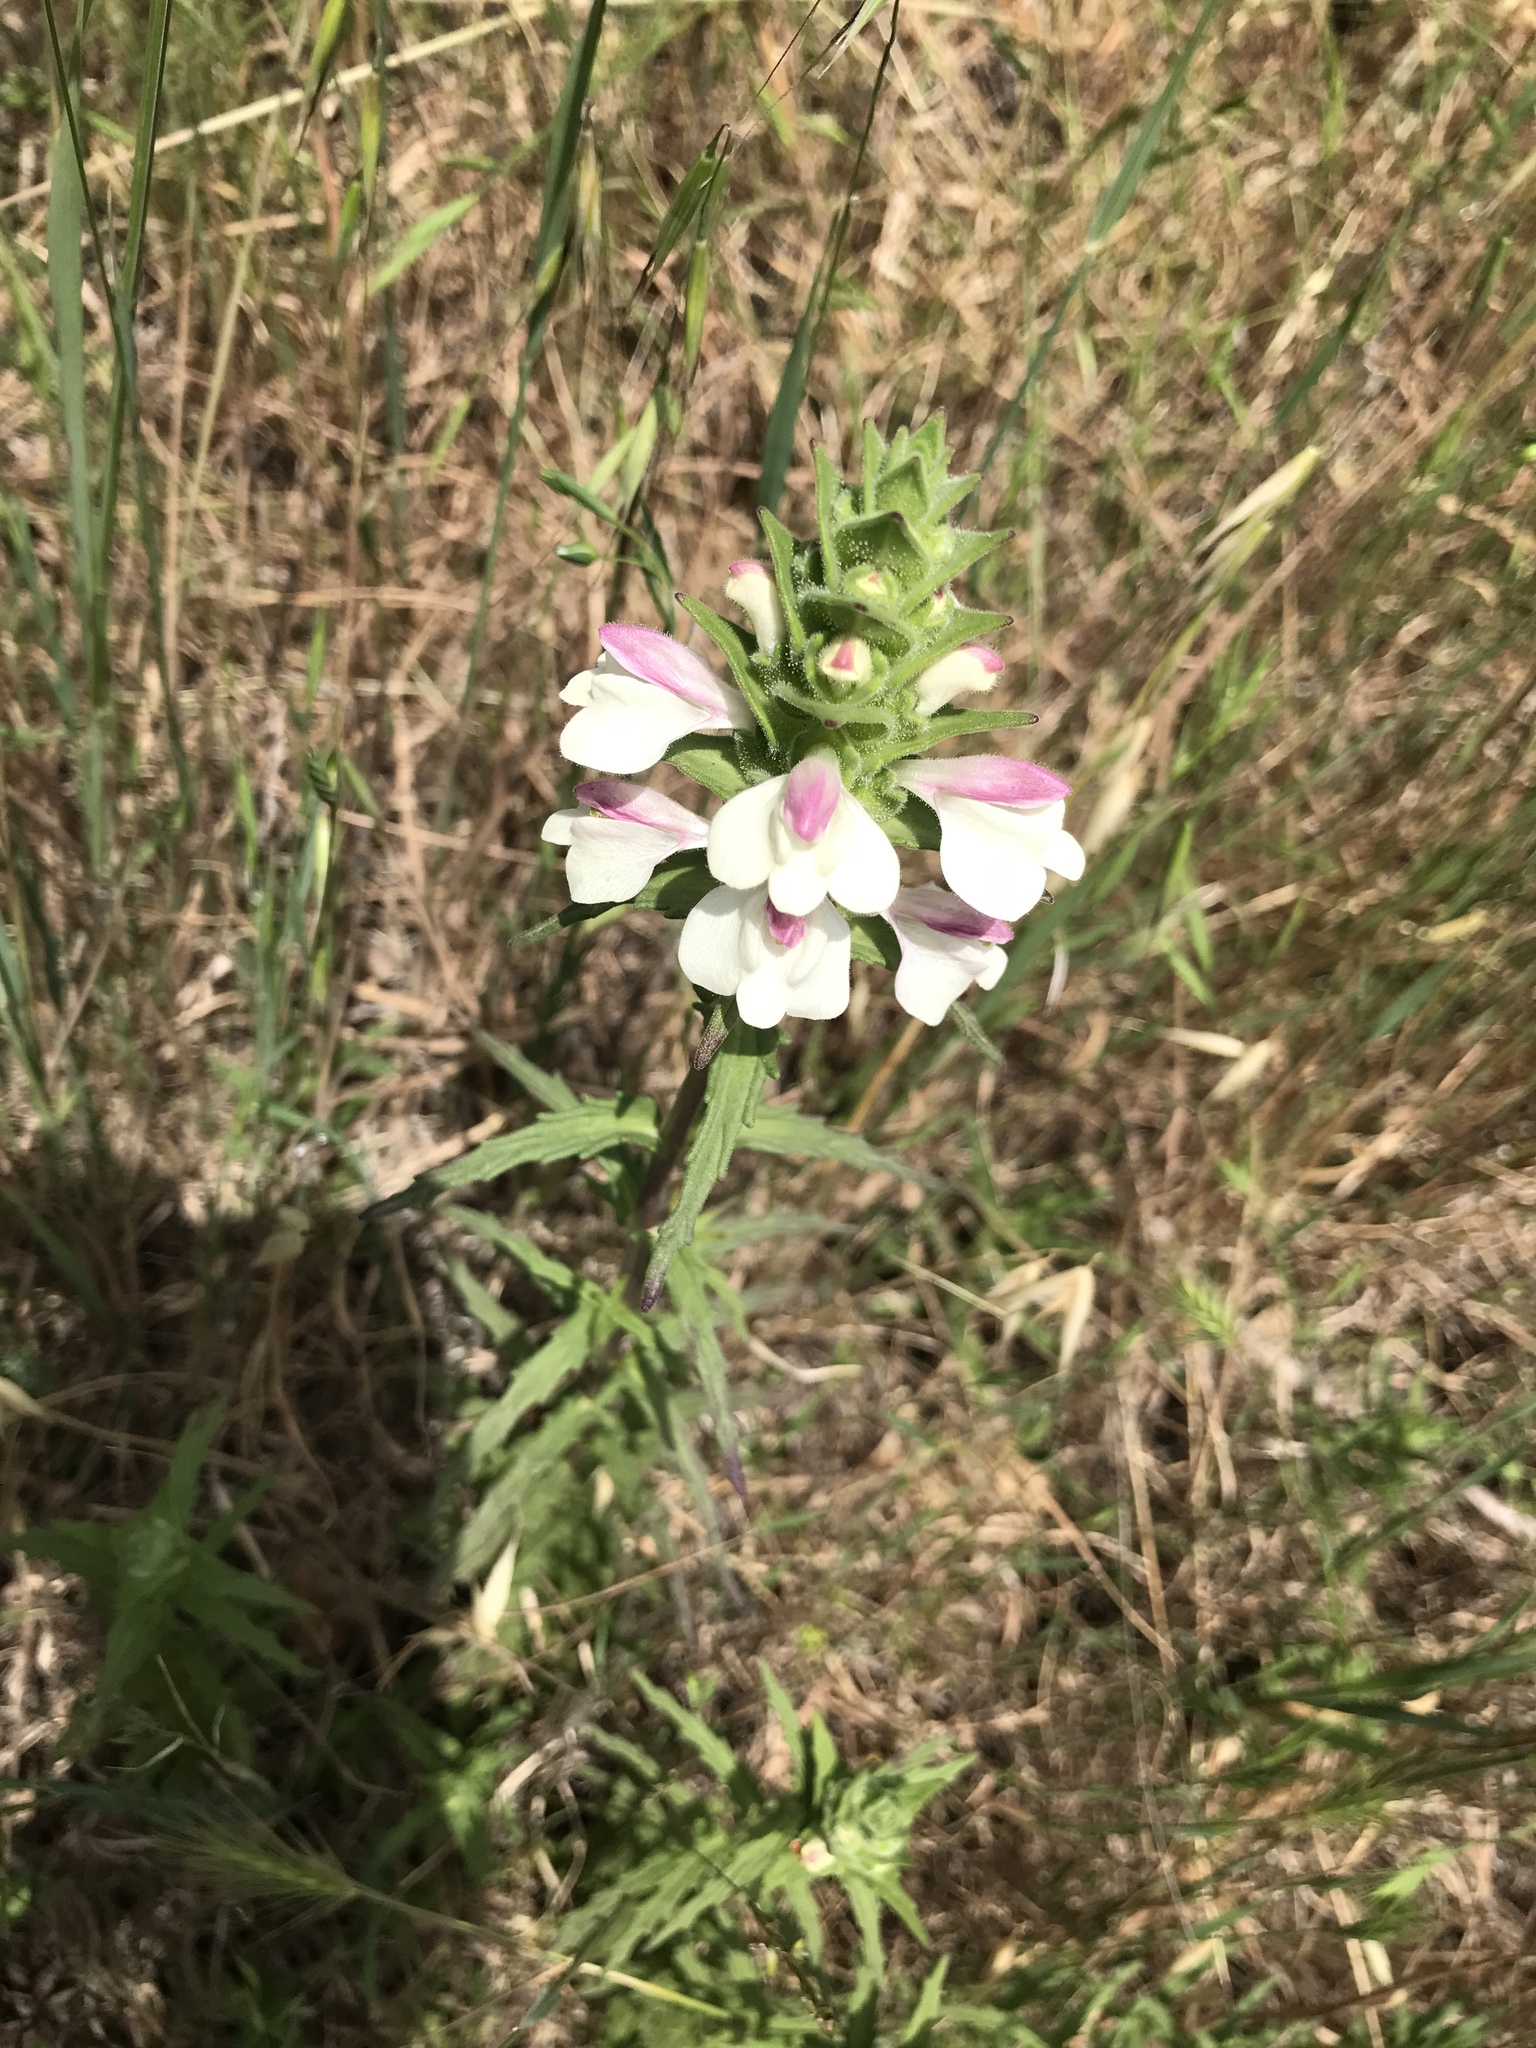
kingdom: Plantae
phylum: Tracheophyta
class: Magnoliopsida
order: Lamiales
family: Orobanchaceae
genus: Bellardia
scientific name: Bellardia trixago
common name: Mediterranean lineseed
